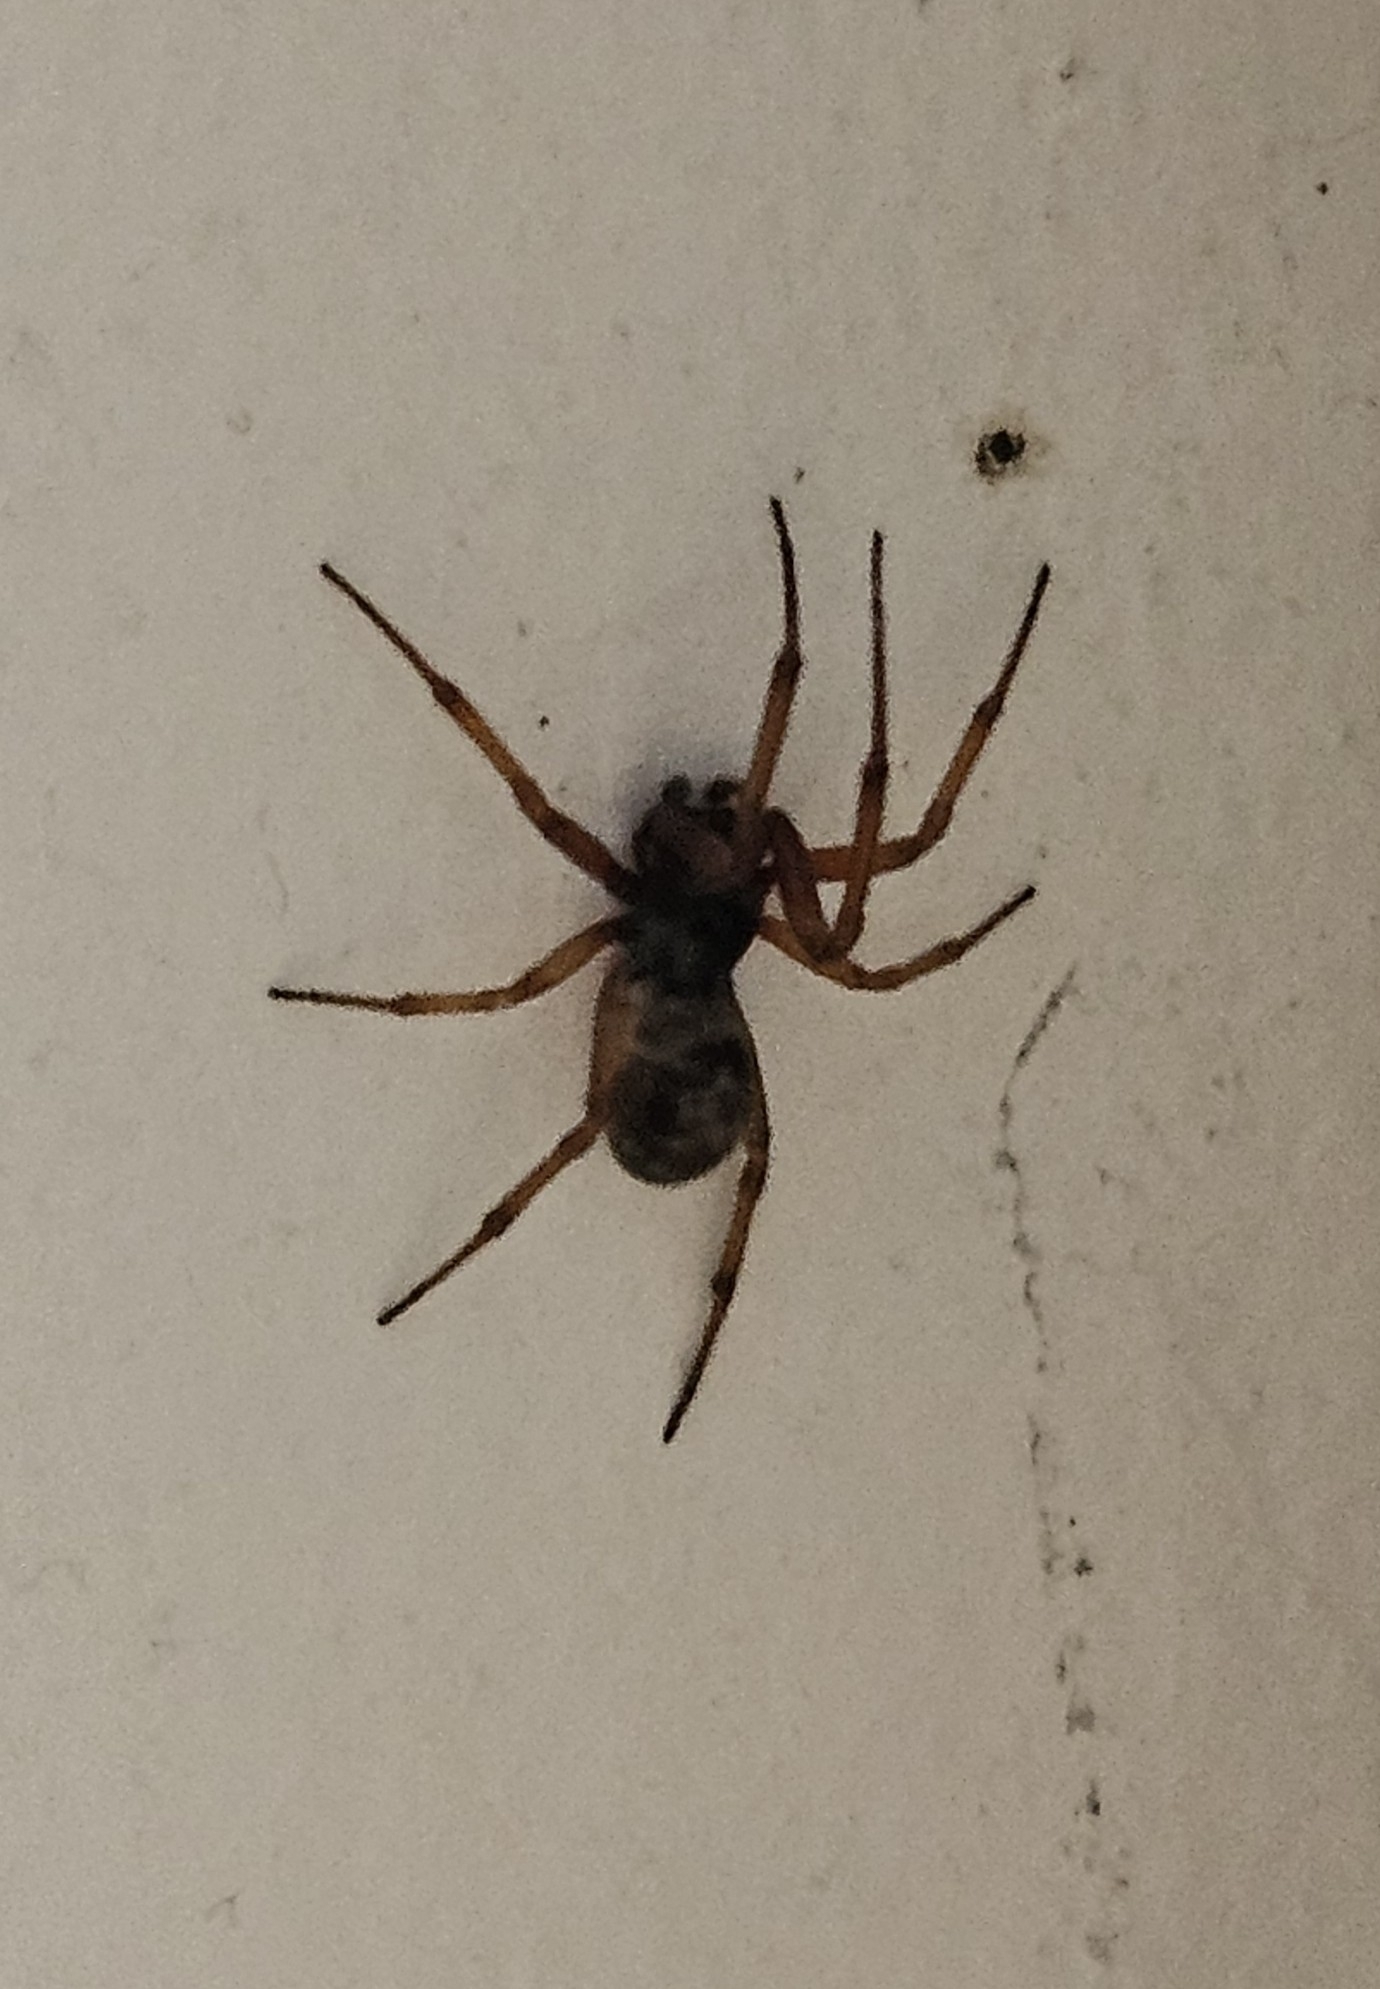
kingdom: Animalia
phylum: Arthropoda
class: Arachnida
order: Araneae
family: Theridiidae
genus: Steatoda
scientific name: Steatoda nobilis
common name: Cobweb weaver
